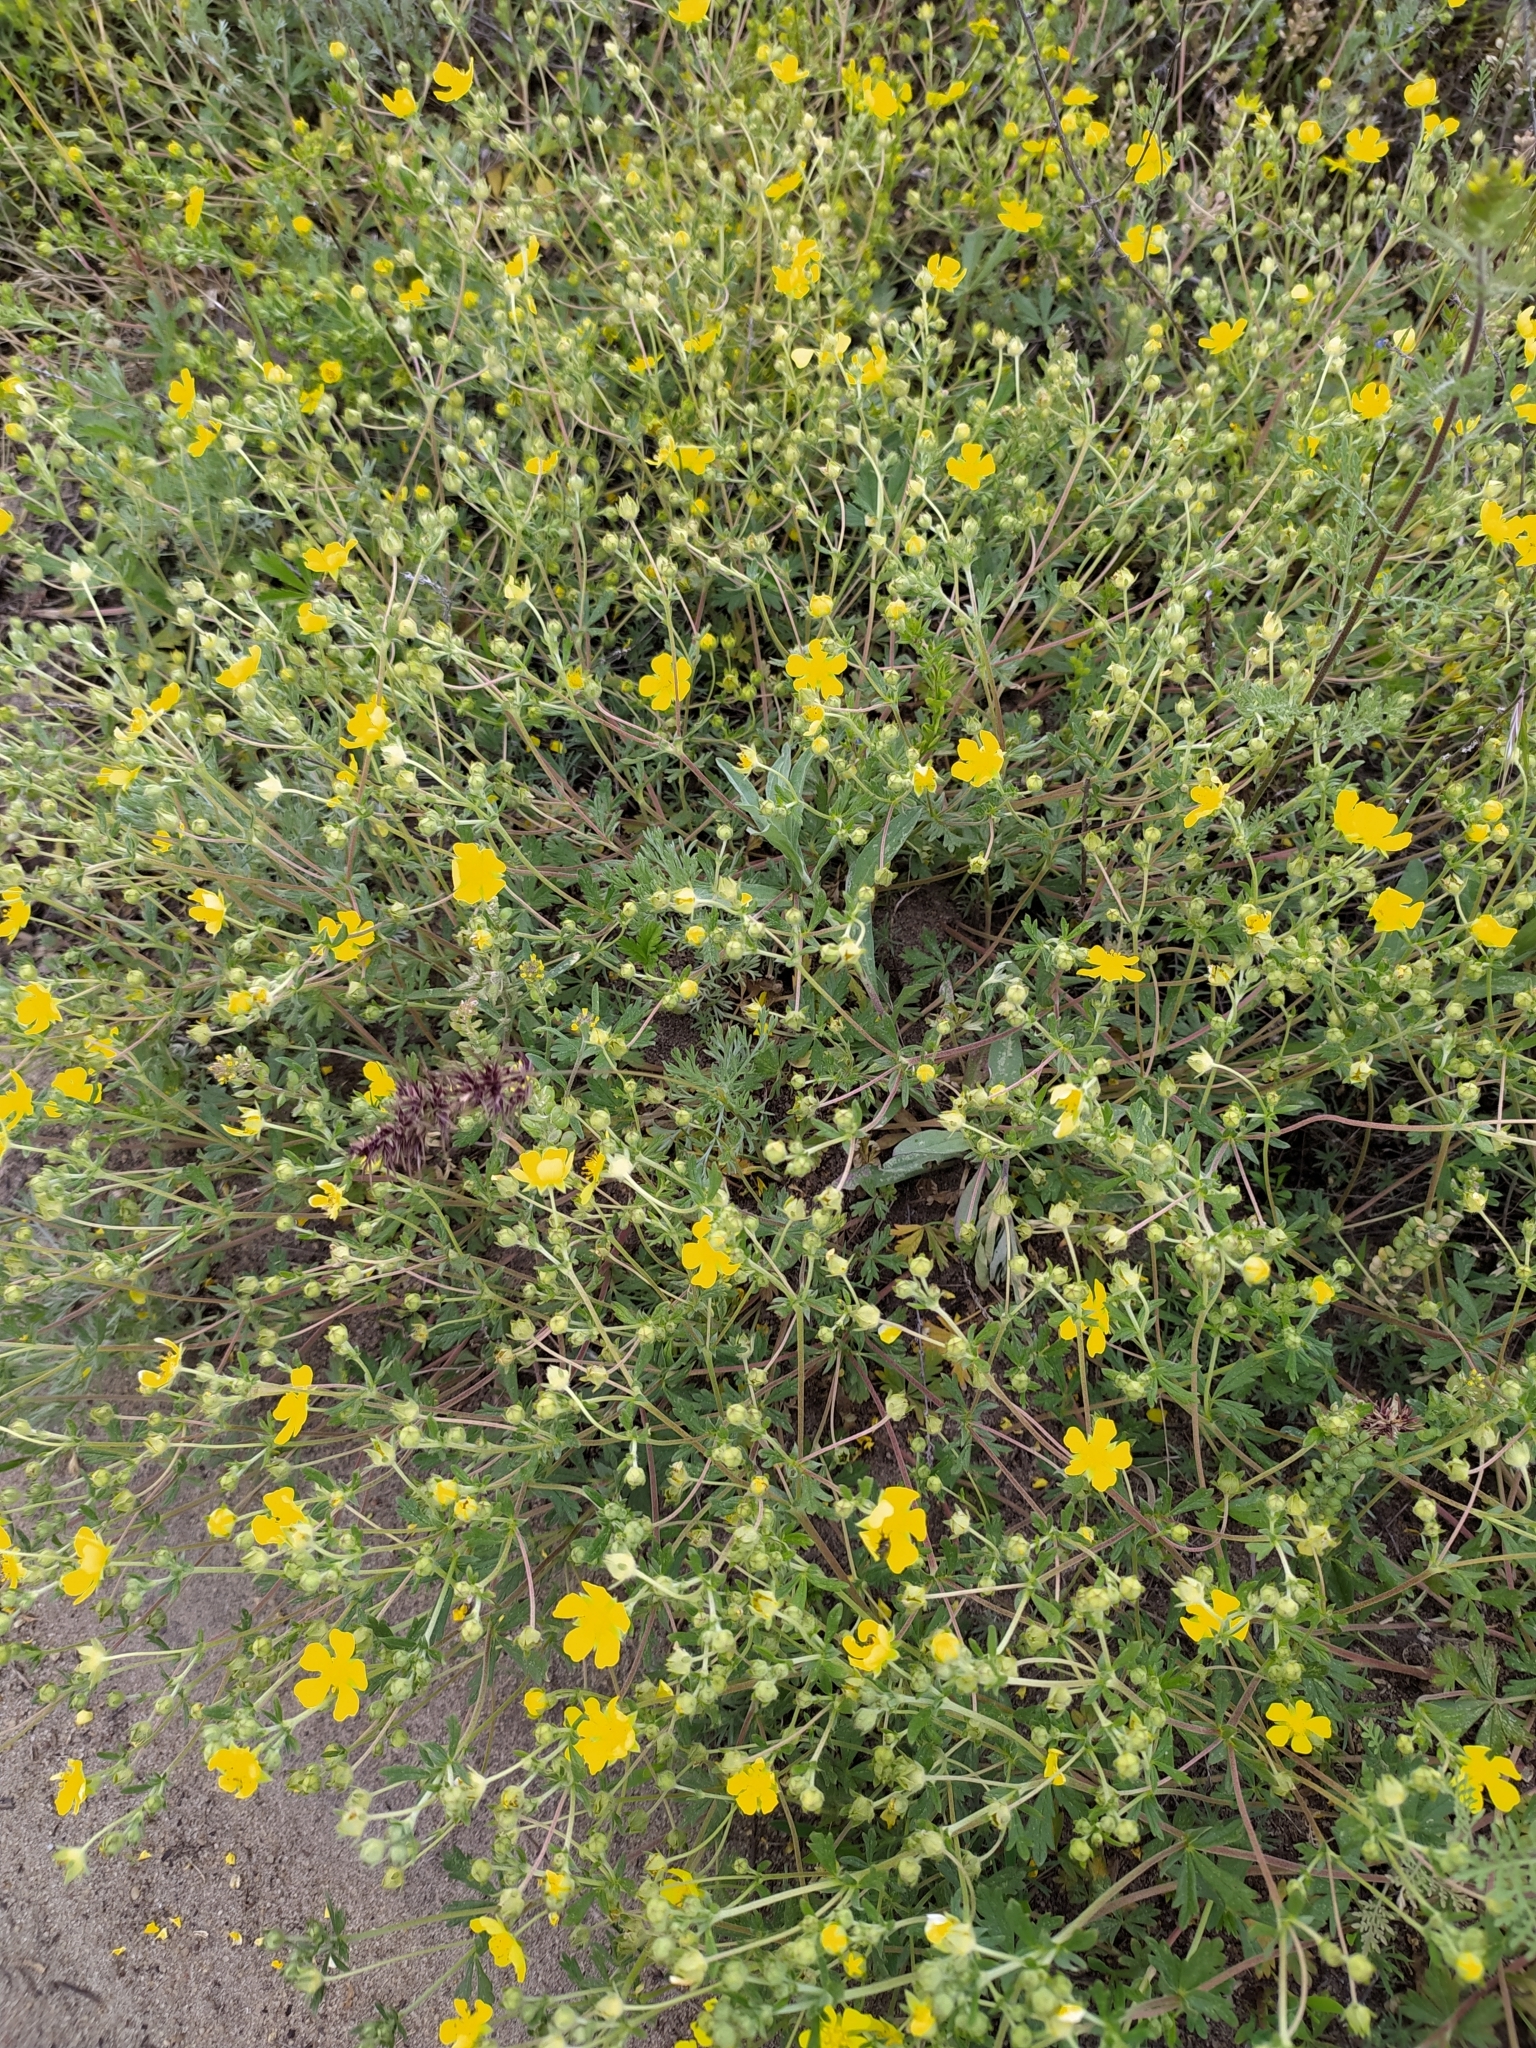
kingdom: Plantae
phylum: Tracheophyta
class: Magnoliopsida
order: Rosales
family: Rosaceae
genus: Potentilla
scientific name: Potentilla collina
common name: Palmleaf cinquefoil
